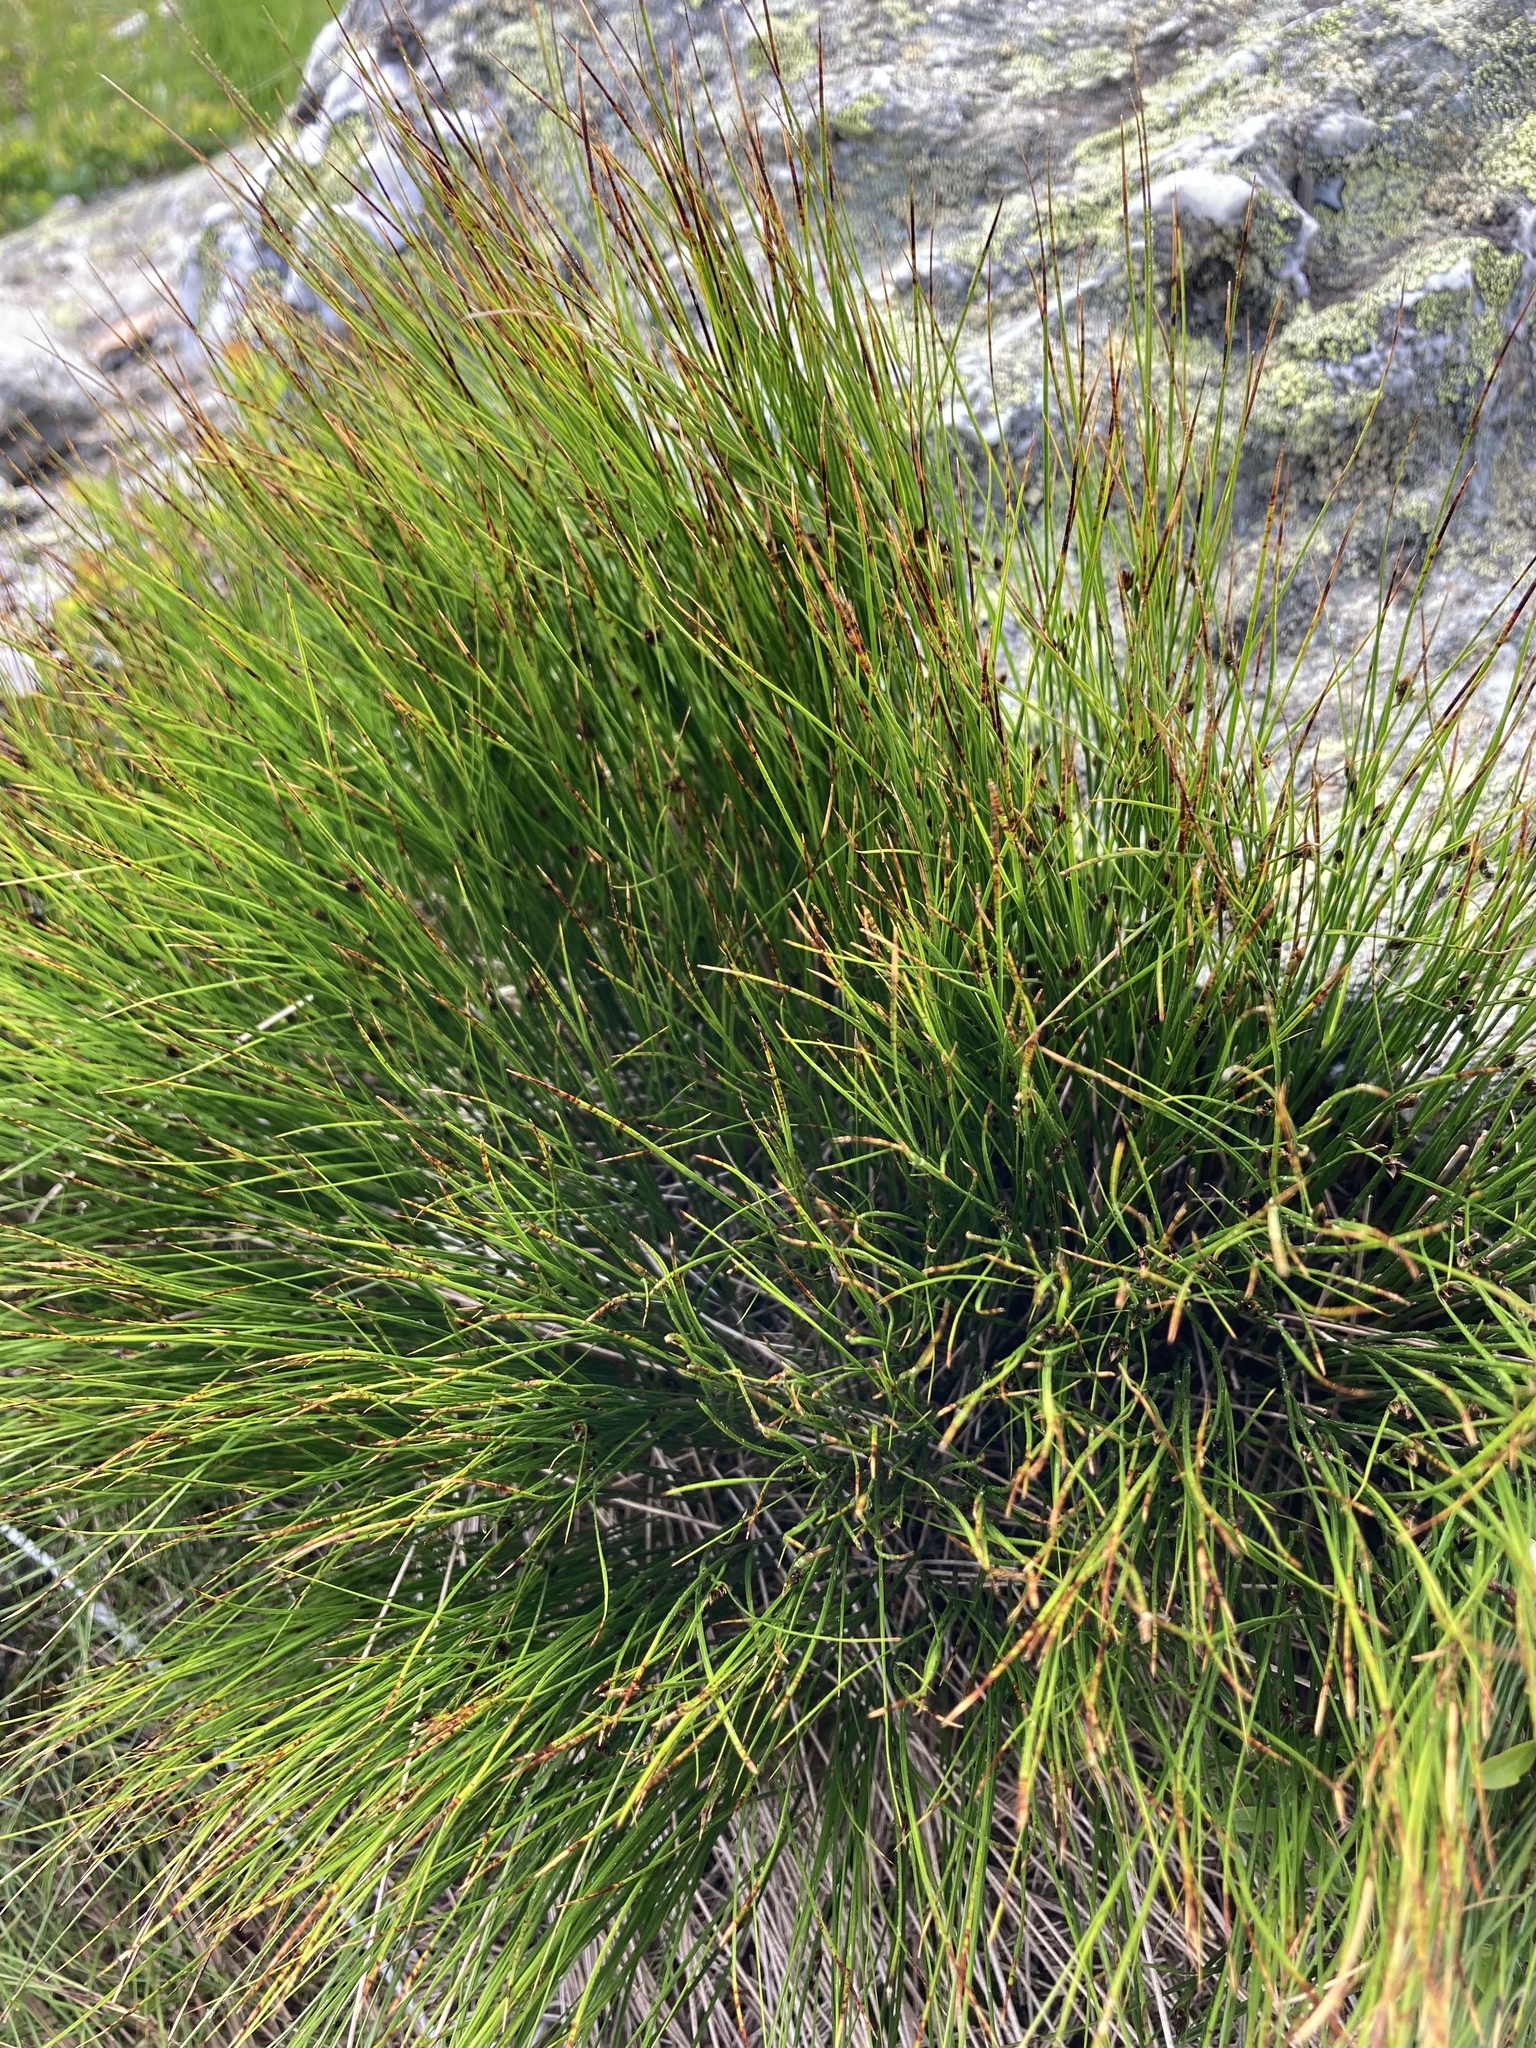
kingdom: Plantae
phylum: Tracheophyta
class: Liliopsida
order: Poales
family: Juncaceae
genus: Oreojuncus
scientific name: Oreojuncus trifidus
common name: Highland rush
